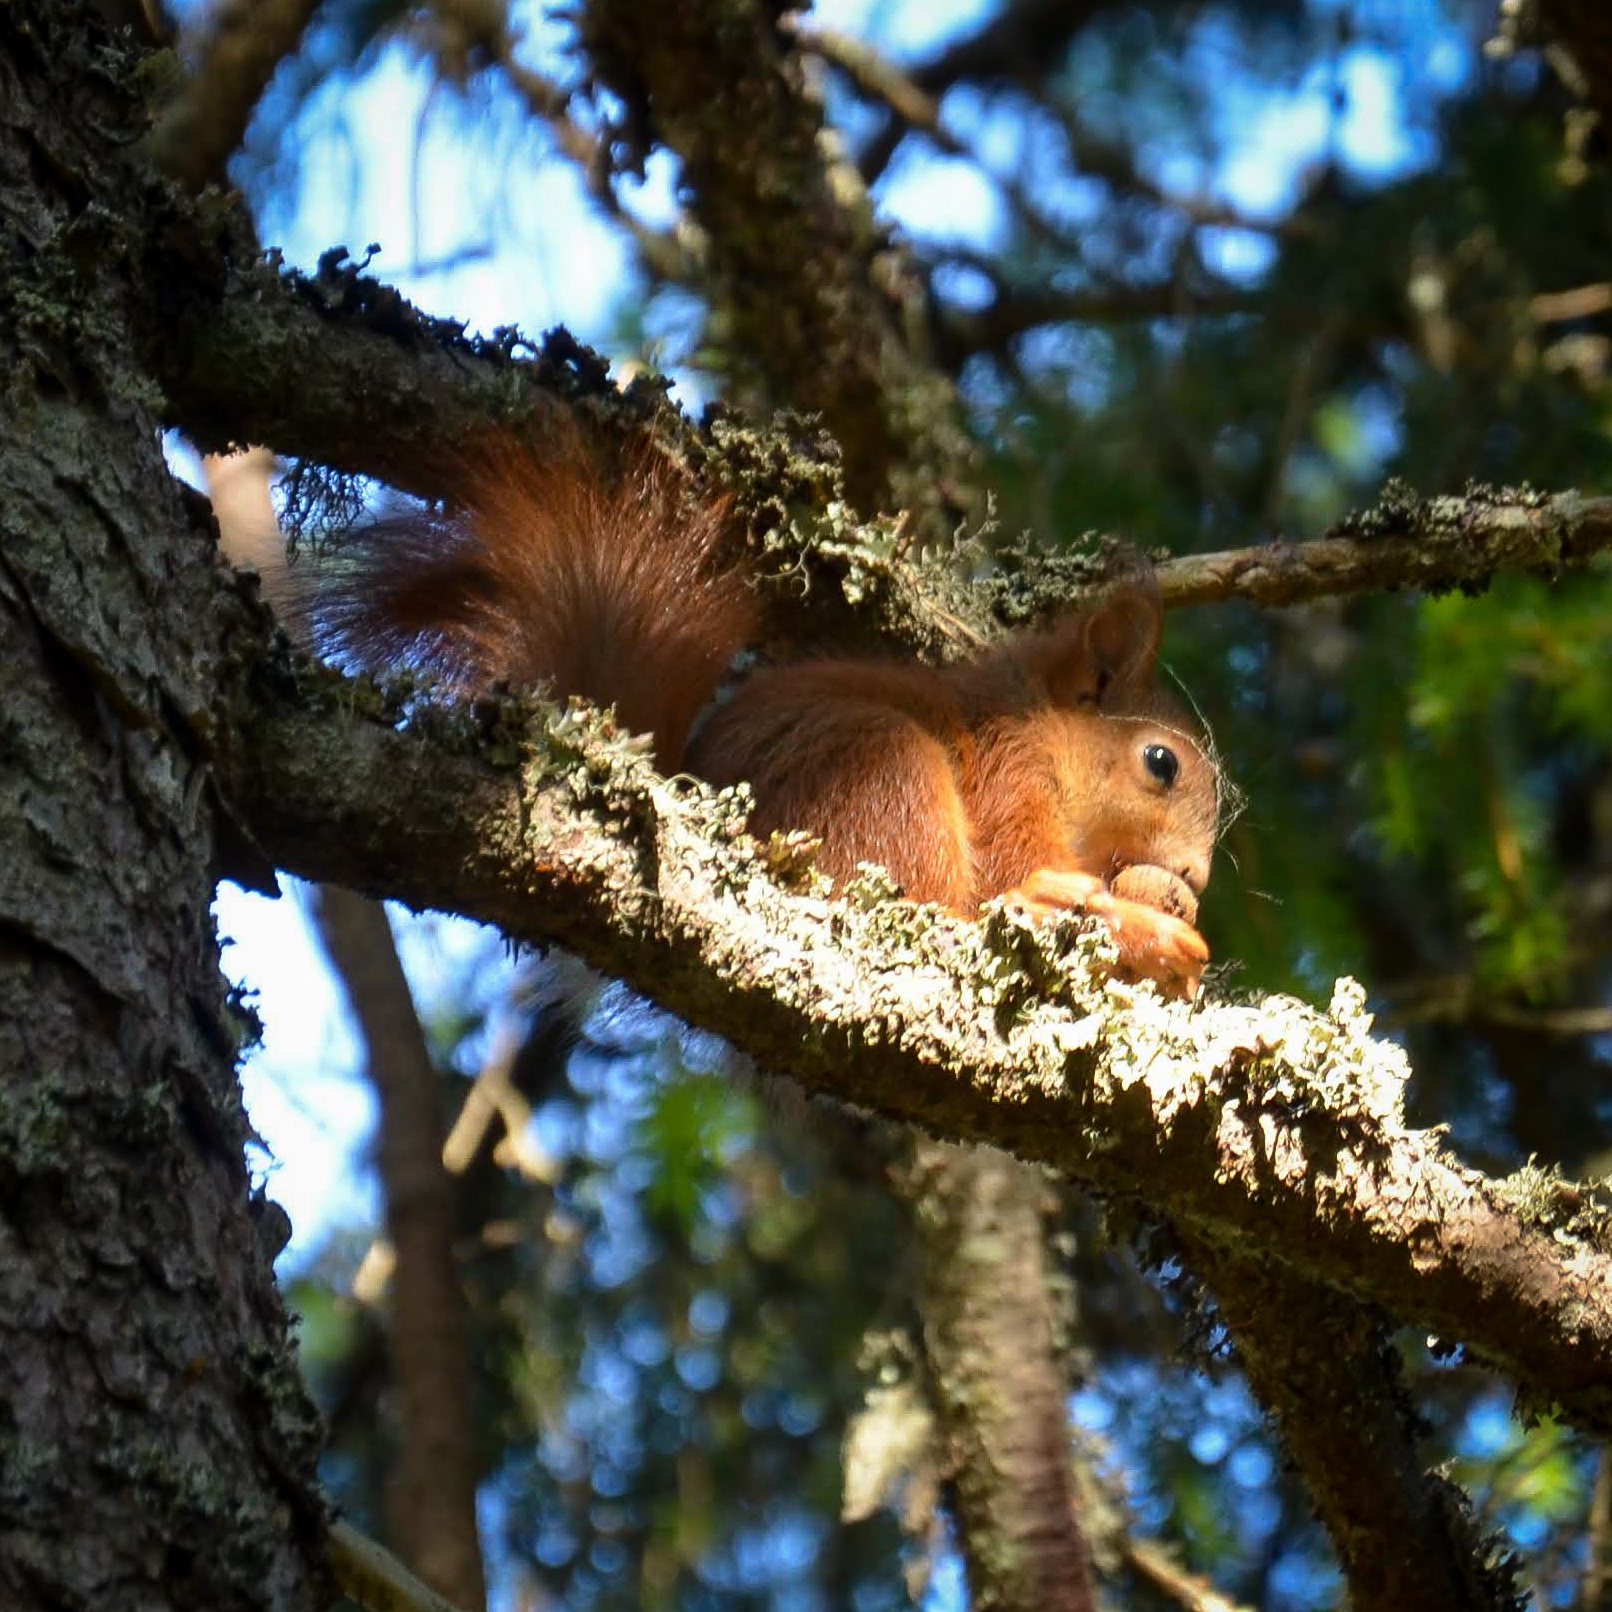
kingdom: Animalia
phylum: Chordata
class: Mammalia
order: Rodentia
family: Sciuridae
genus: Sciurus
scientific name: Sciurus vulgaris
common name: Eurasian red squirrel
